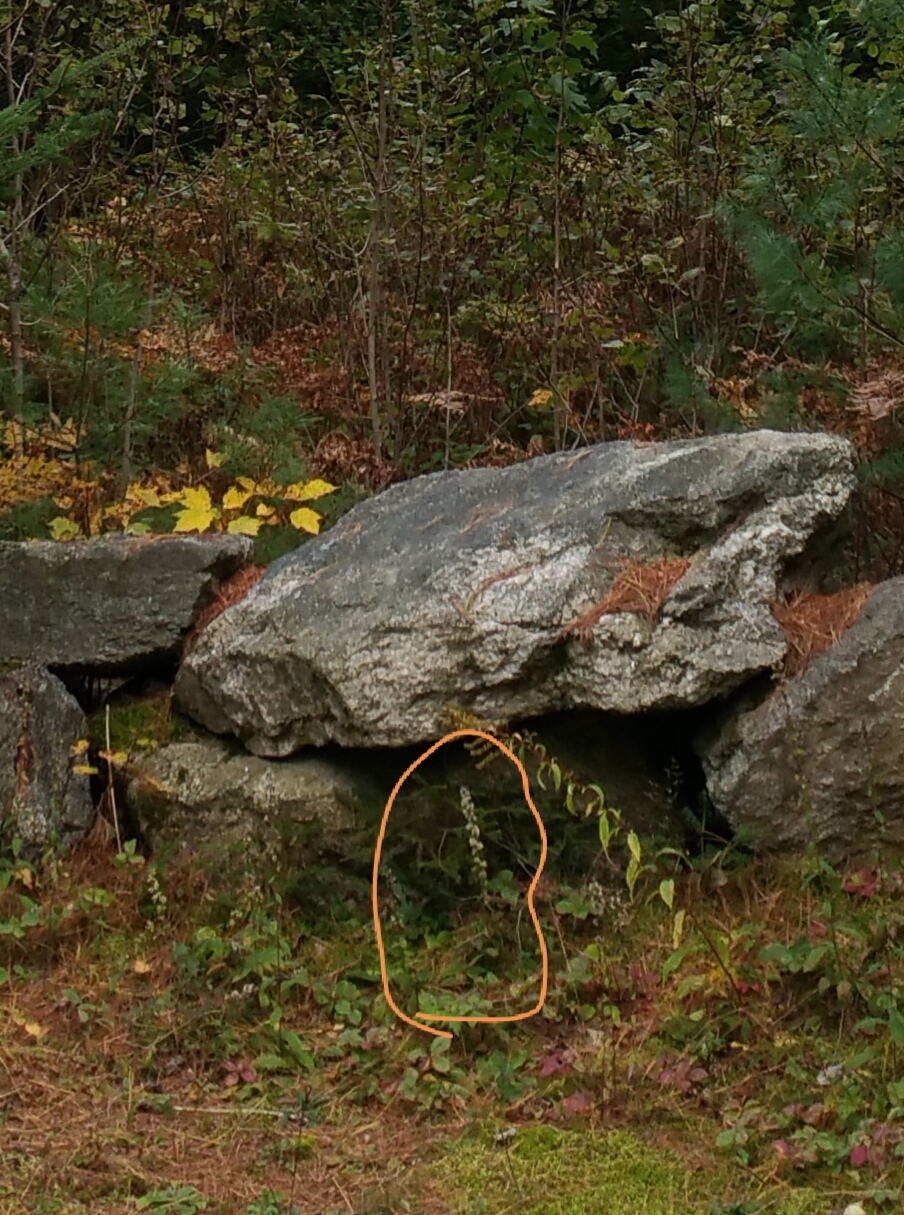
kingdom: Plantae
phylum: Tracheophyta
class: Magnoliopsida
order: Asterales
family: Asteraceae
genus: Solidago
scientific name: Solidago bicolor
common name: Silverrod
